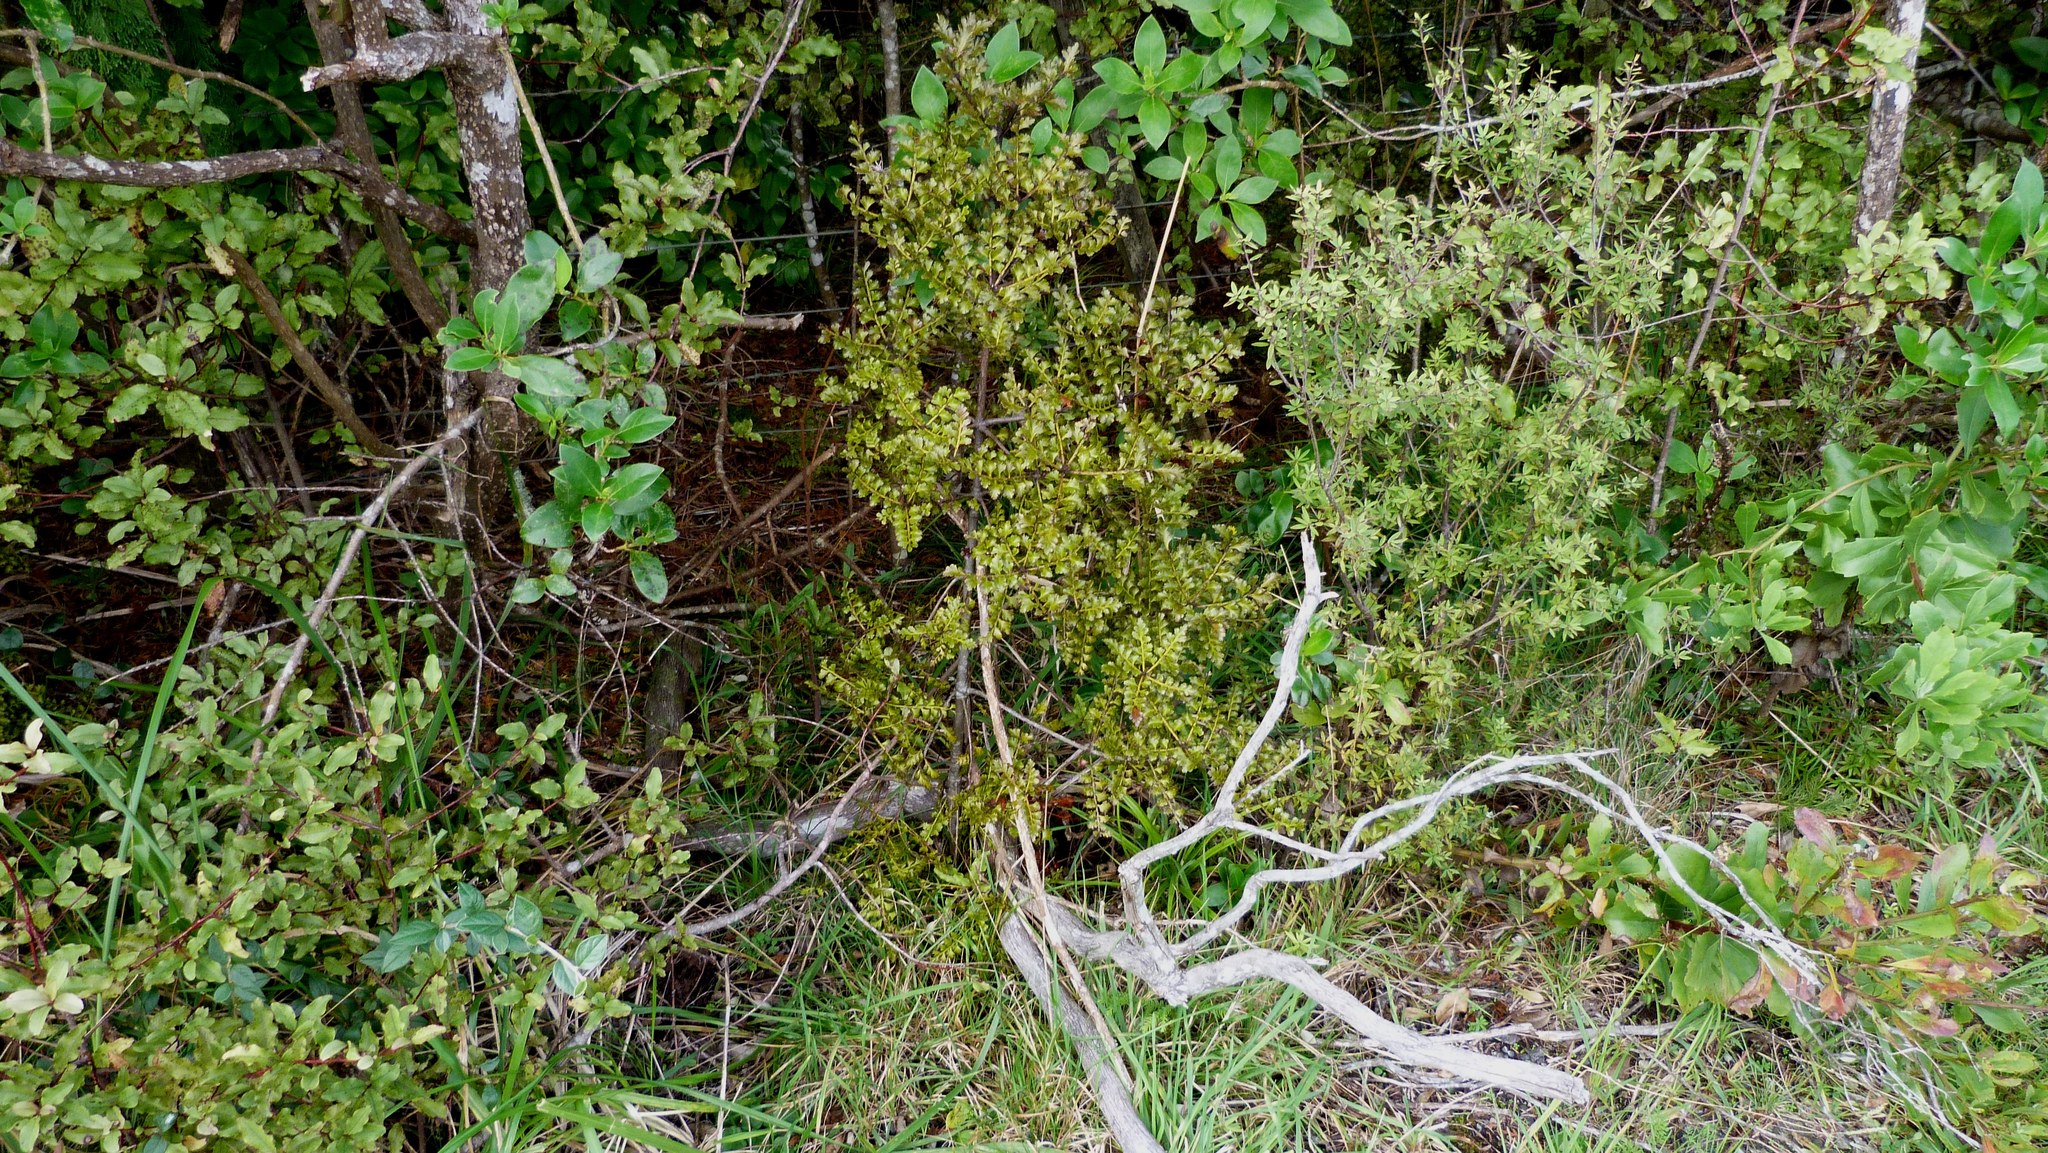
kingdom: Plantae
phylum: Tracheophyta
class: Pinopsida
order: Pinales
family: Phyllocladaceae
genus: Phyllocladus
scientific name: Phyllocladus trichomanoides
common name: Celery pine
